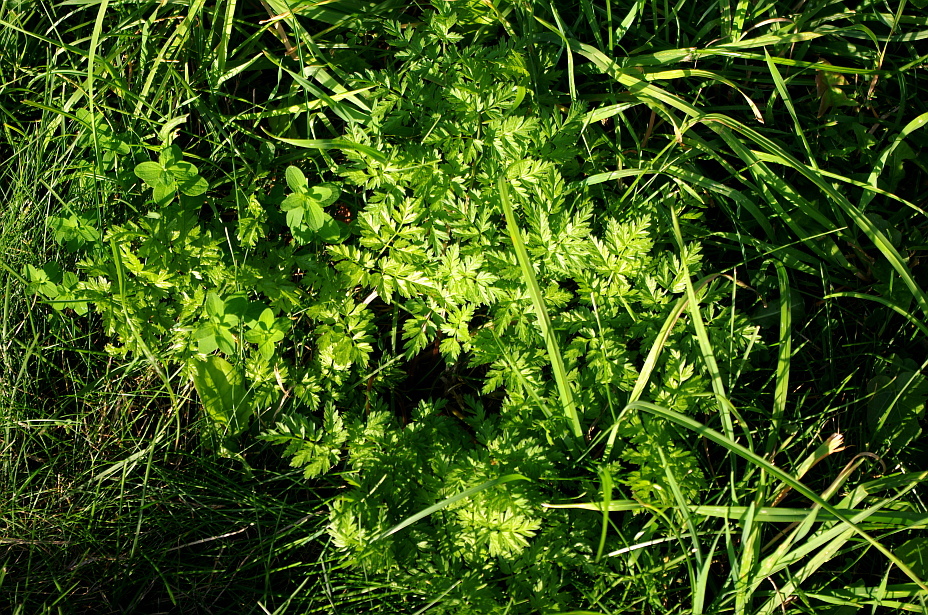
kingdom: Plantae
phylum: Tracheophyta
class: Magnoliopsida
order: Apiales
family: Apiaceae
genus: Anthriscus
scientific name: Anthriscus sylvestris
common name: Cow parsley
